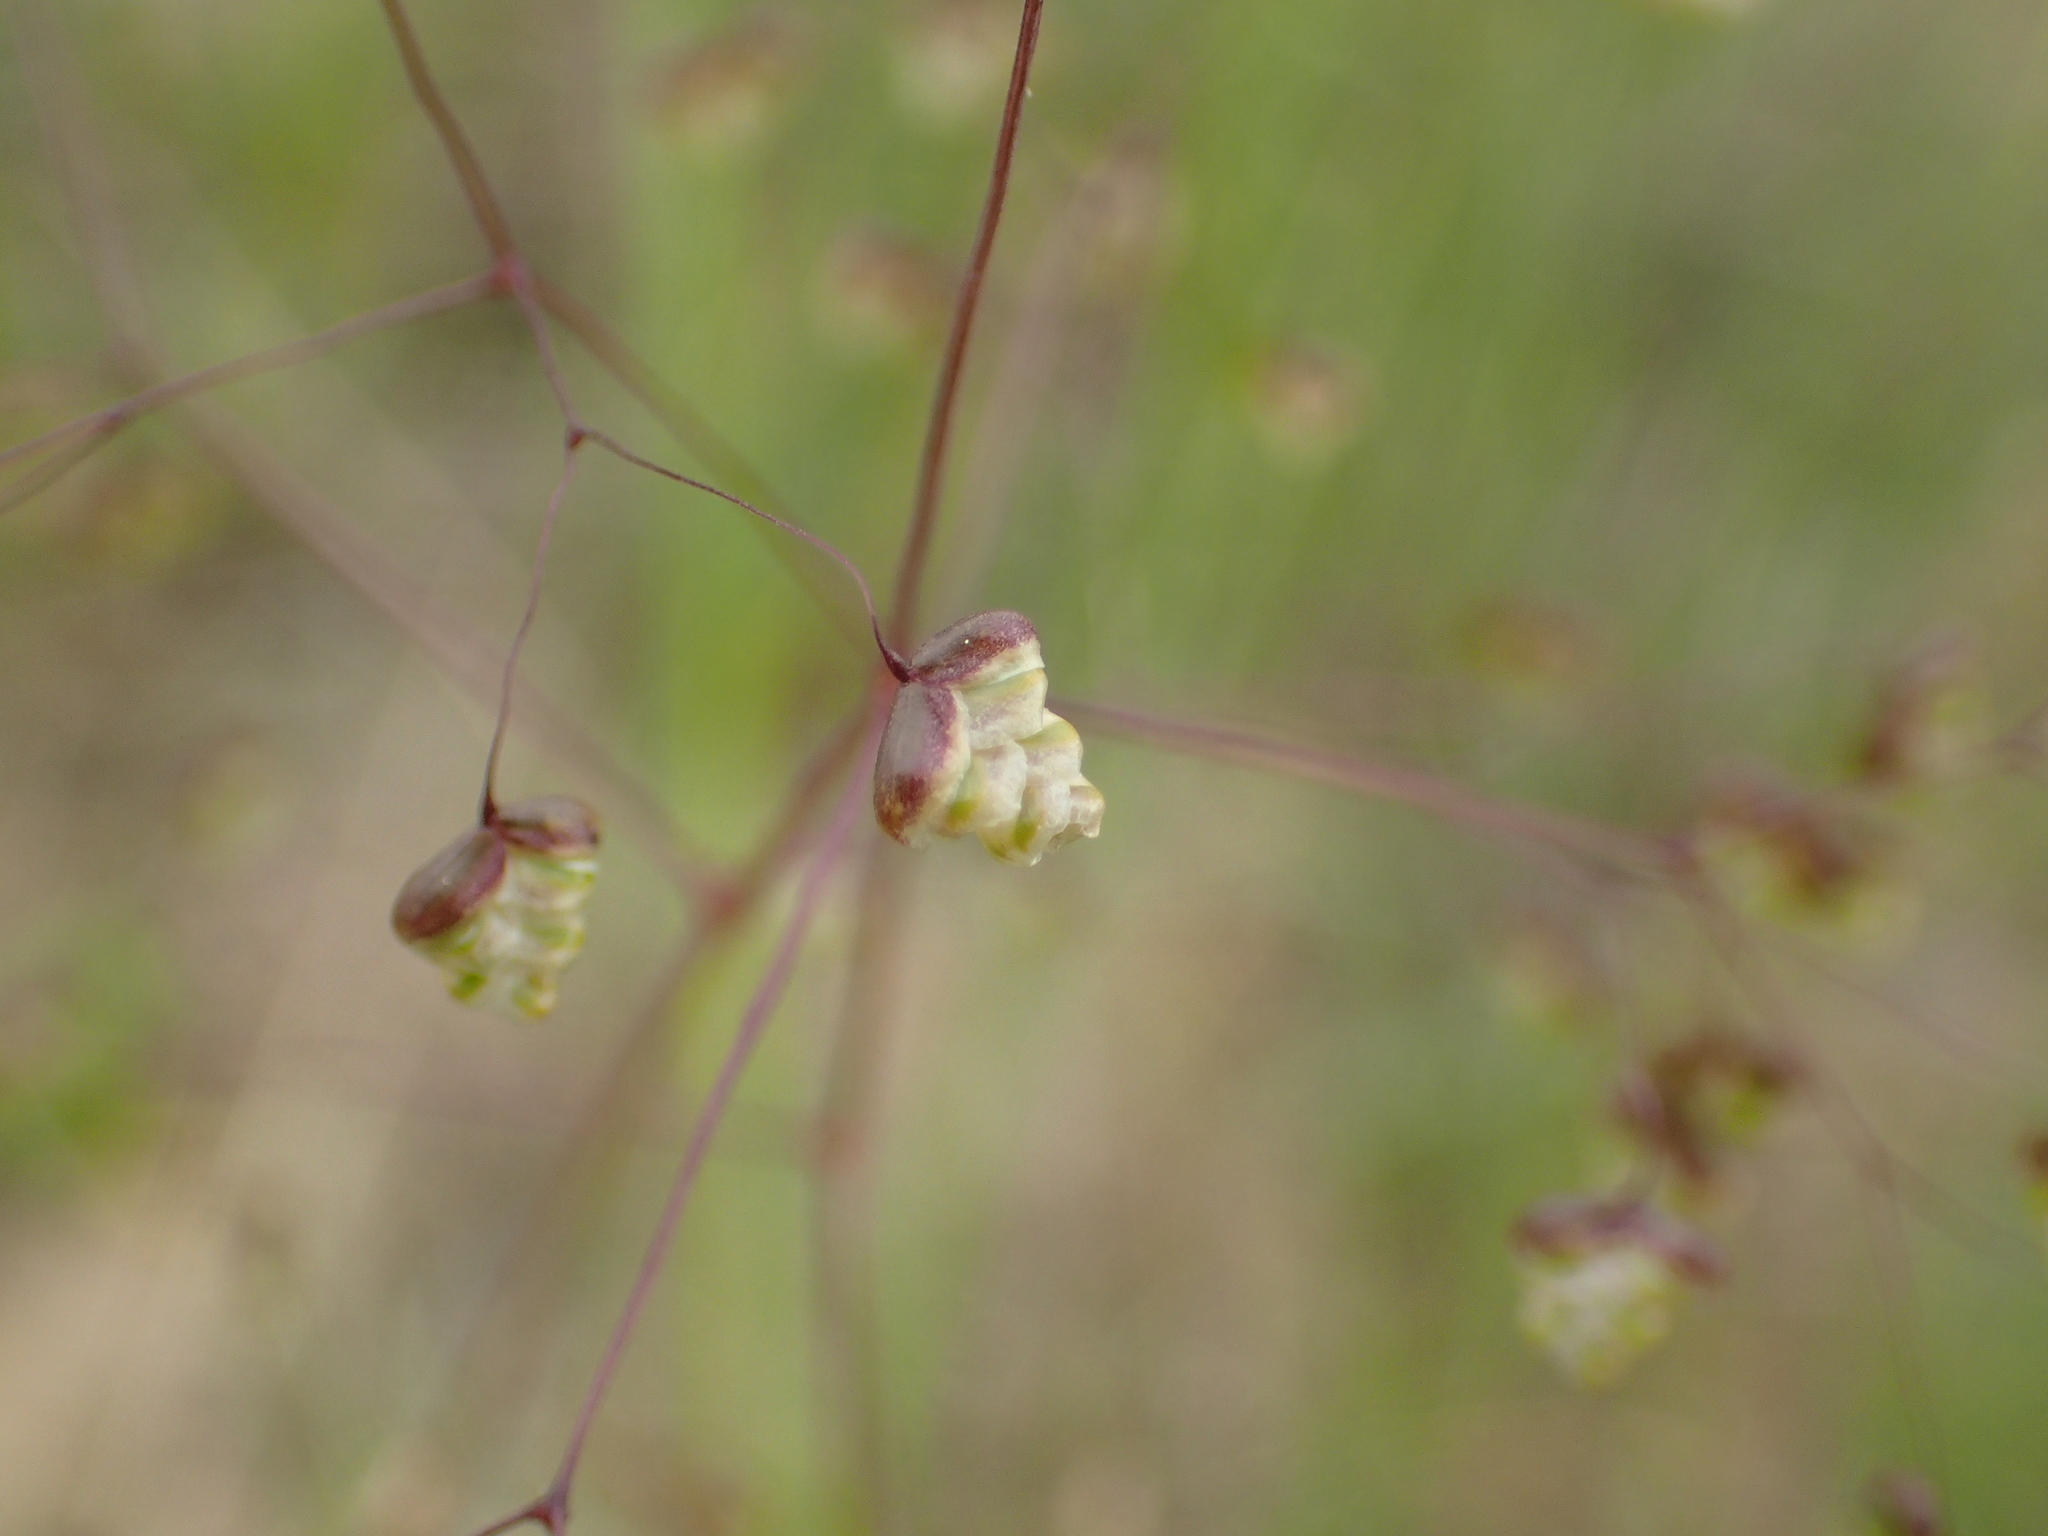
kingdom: Plantae
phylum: Tracheophyta
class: Liliopsida
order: Poales
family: Poaceae
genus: Briza
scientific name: Briza minor
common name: Lesser quaking-grass
